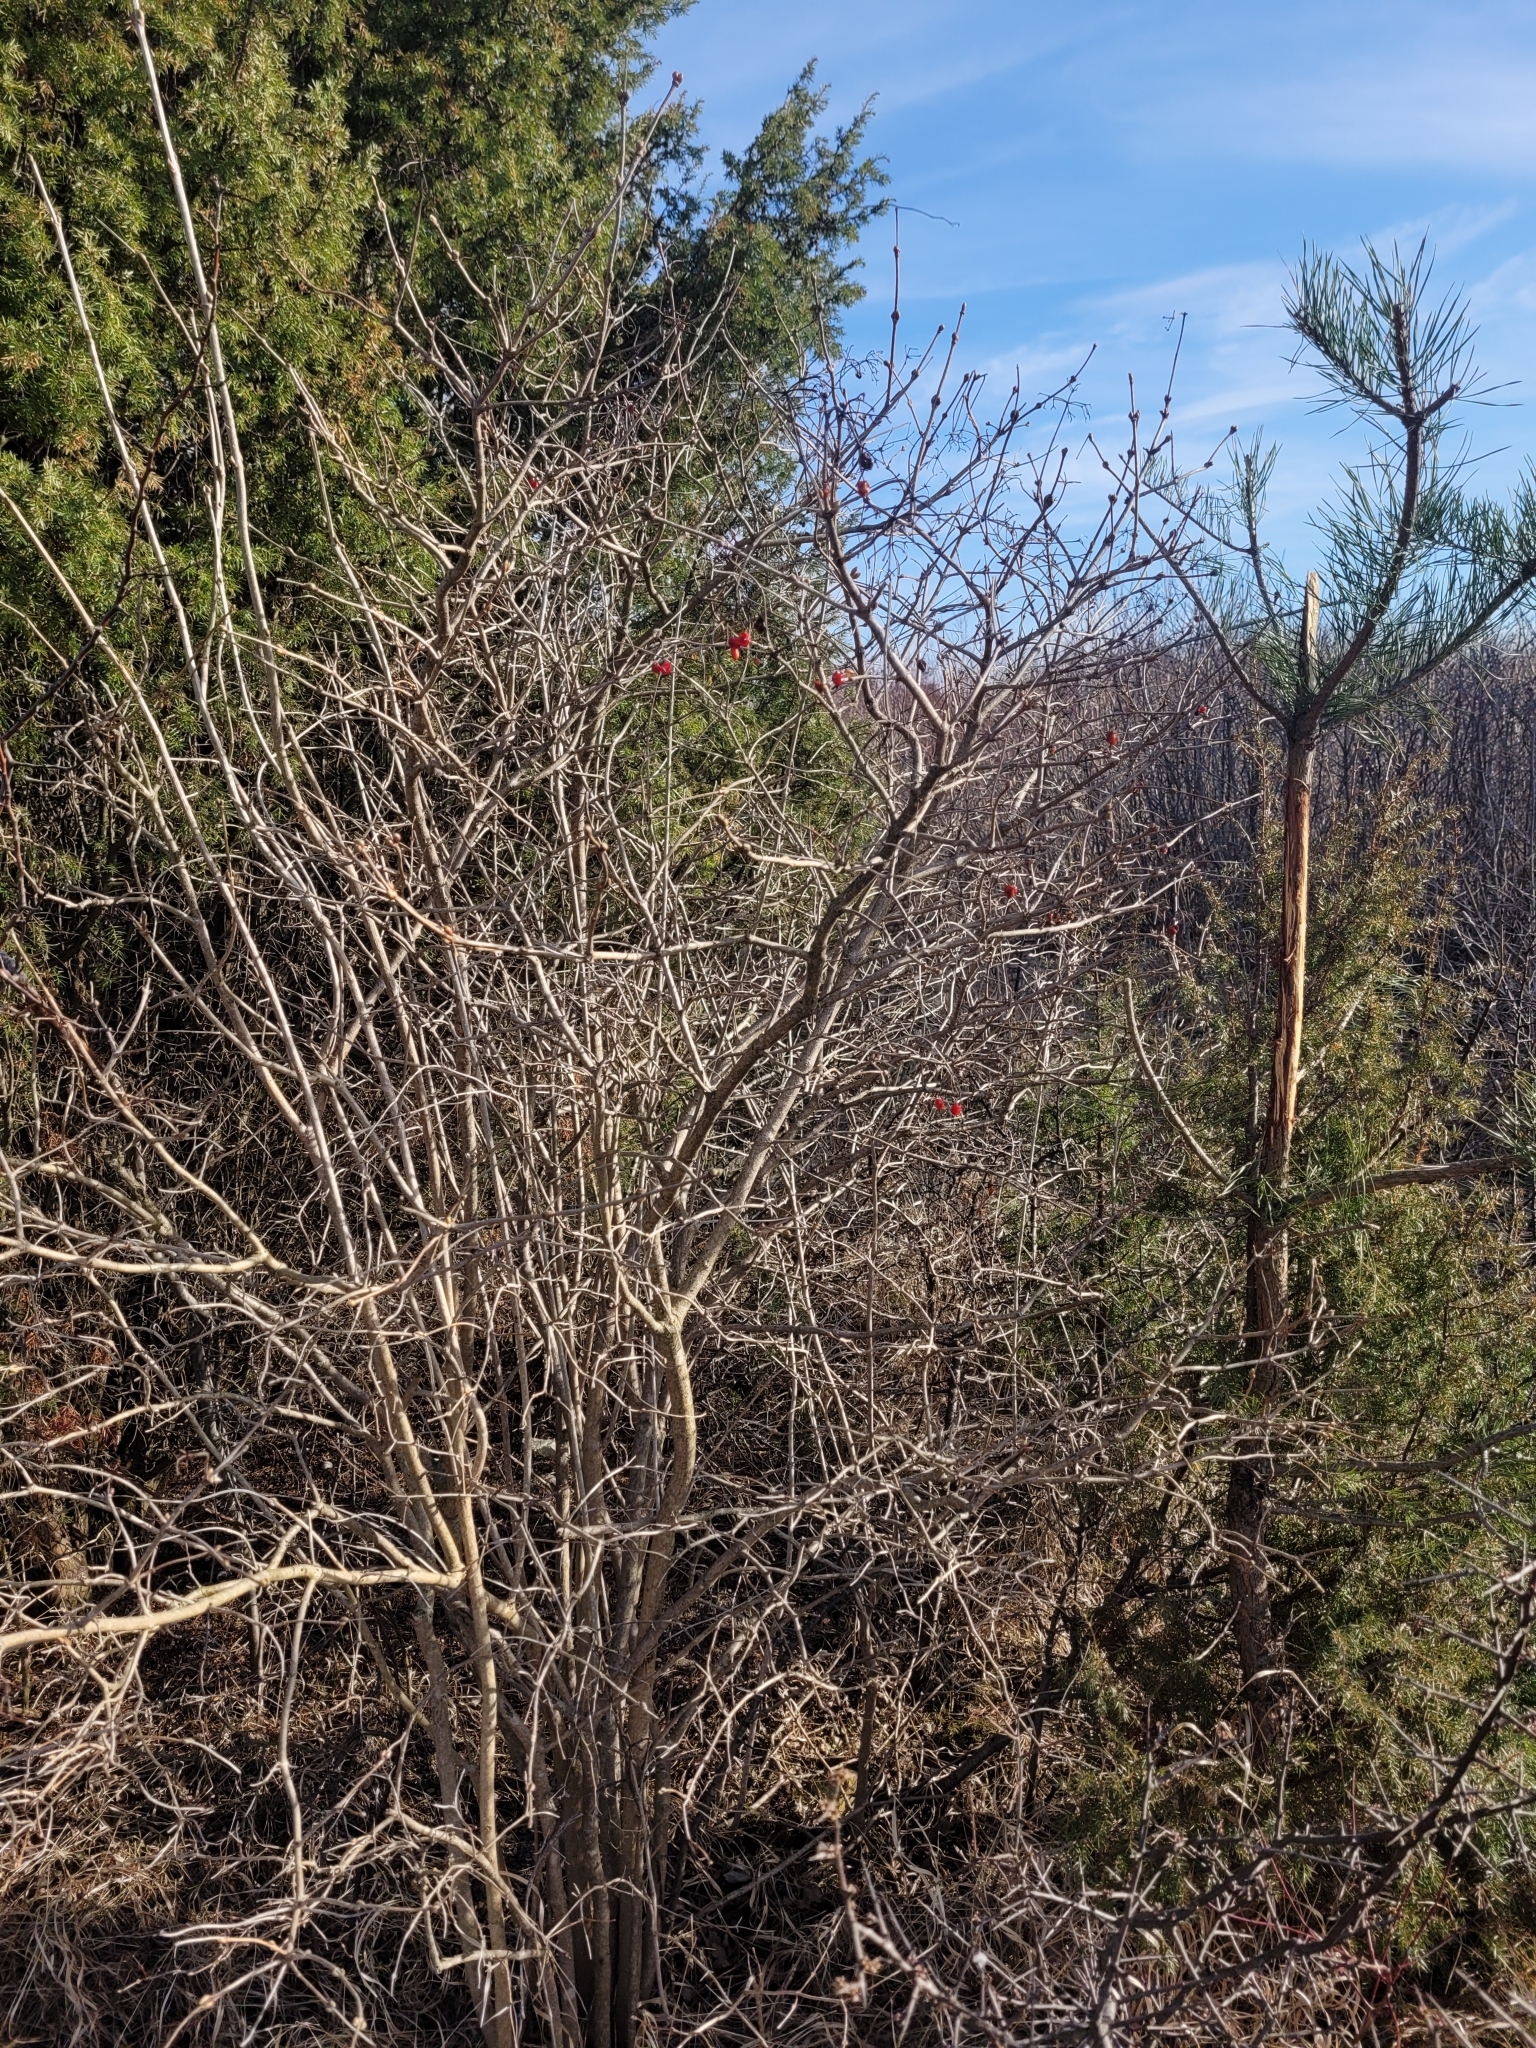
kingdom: Plantae
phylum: Tracheophyta
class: Magnoliopsida
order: Dipsacales
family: Viburnaceae
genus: Viburnum
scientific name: Viburnum opulus
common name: Guelder-rose
